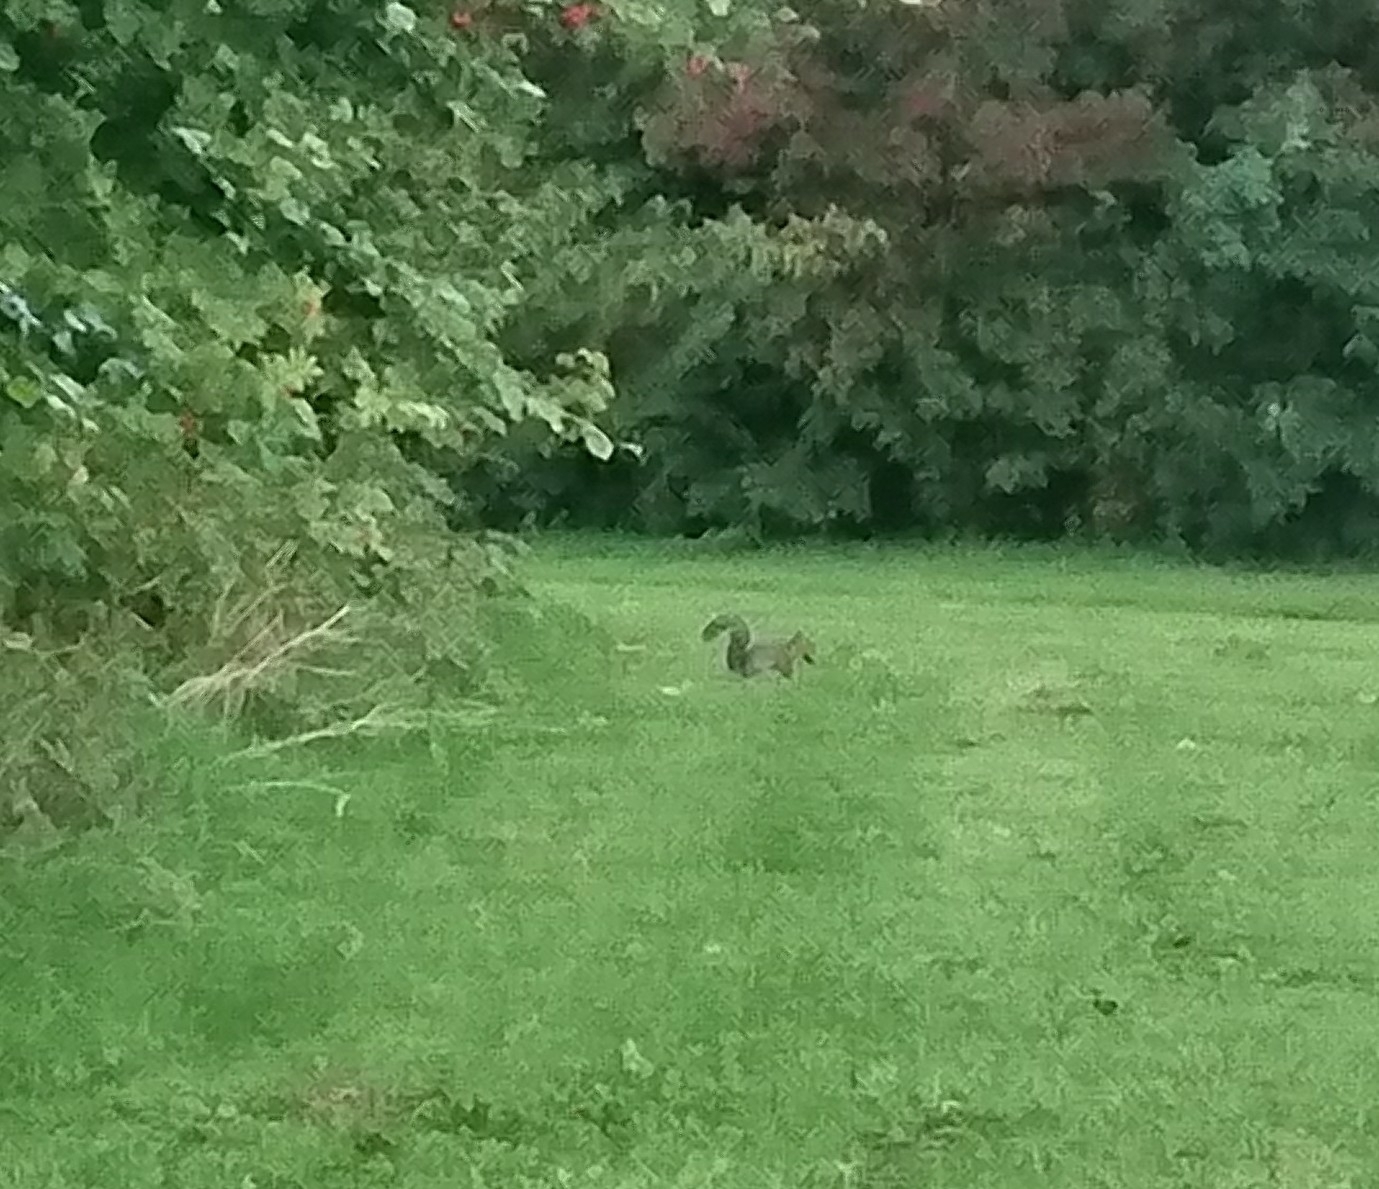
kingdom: Animalia
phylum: Chordata
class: Mammalia
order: Rodentia
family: Sciuridae
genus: Sciurus
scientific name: Sciurus carolinensis
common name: Eastern gray squirrel
